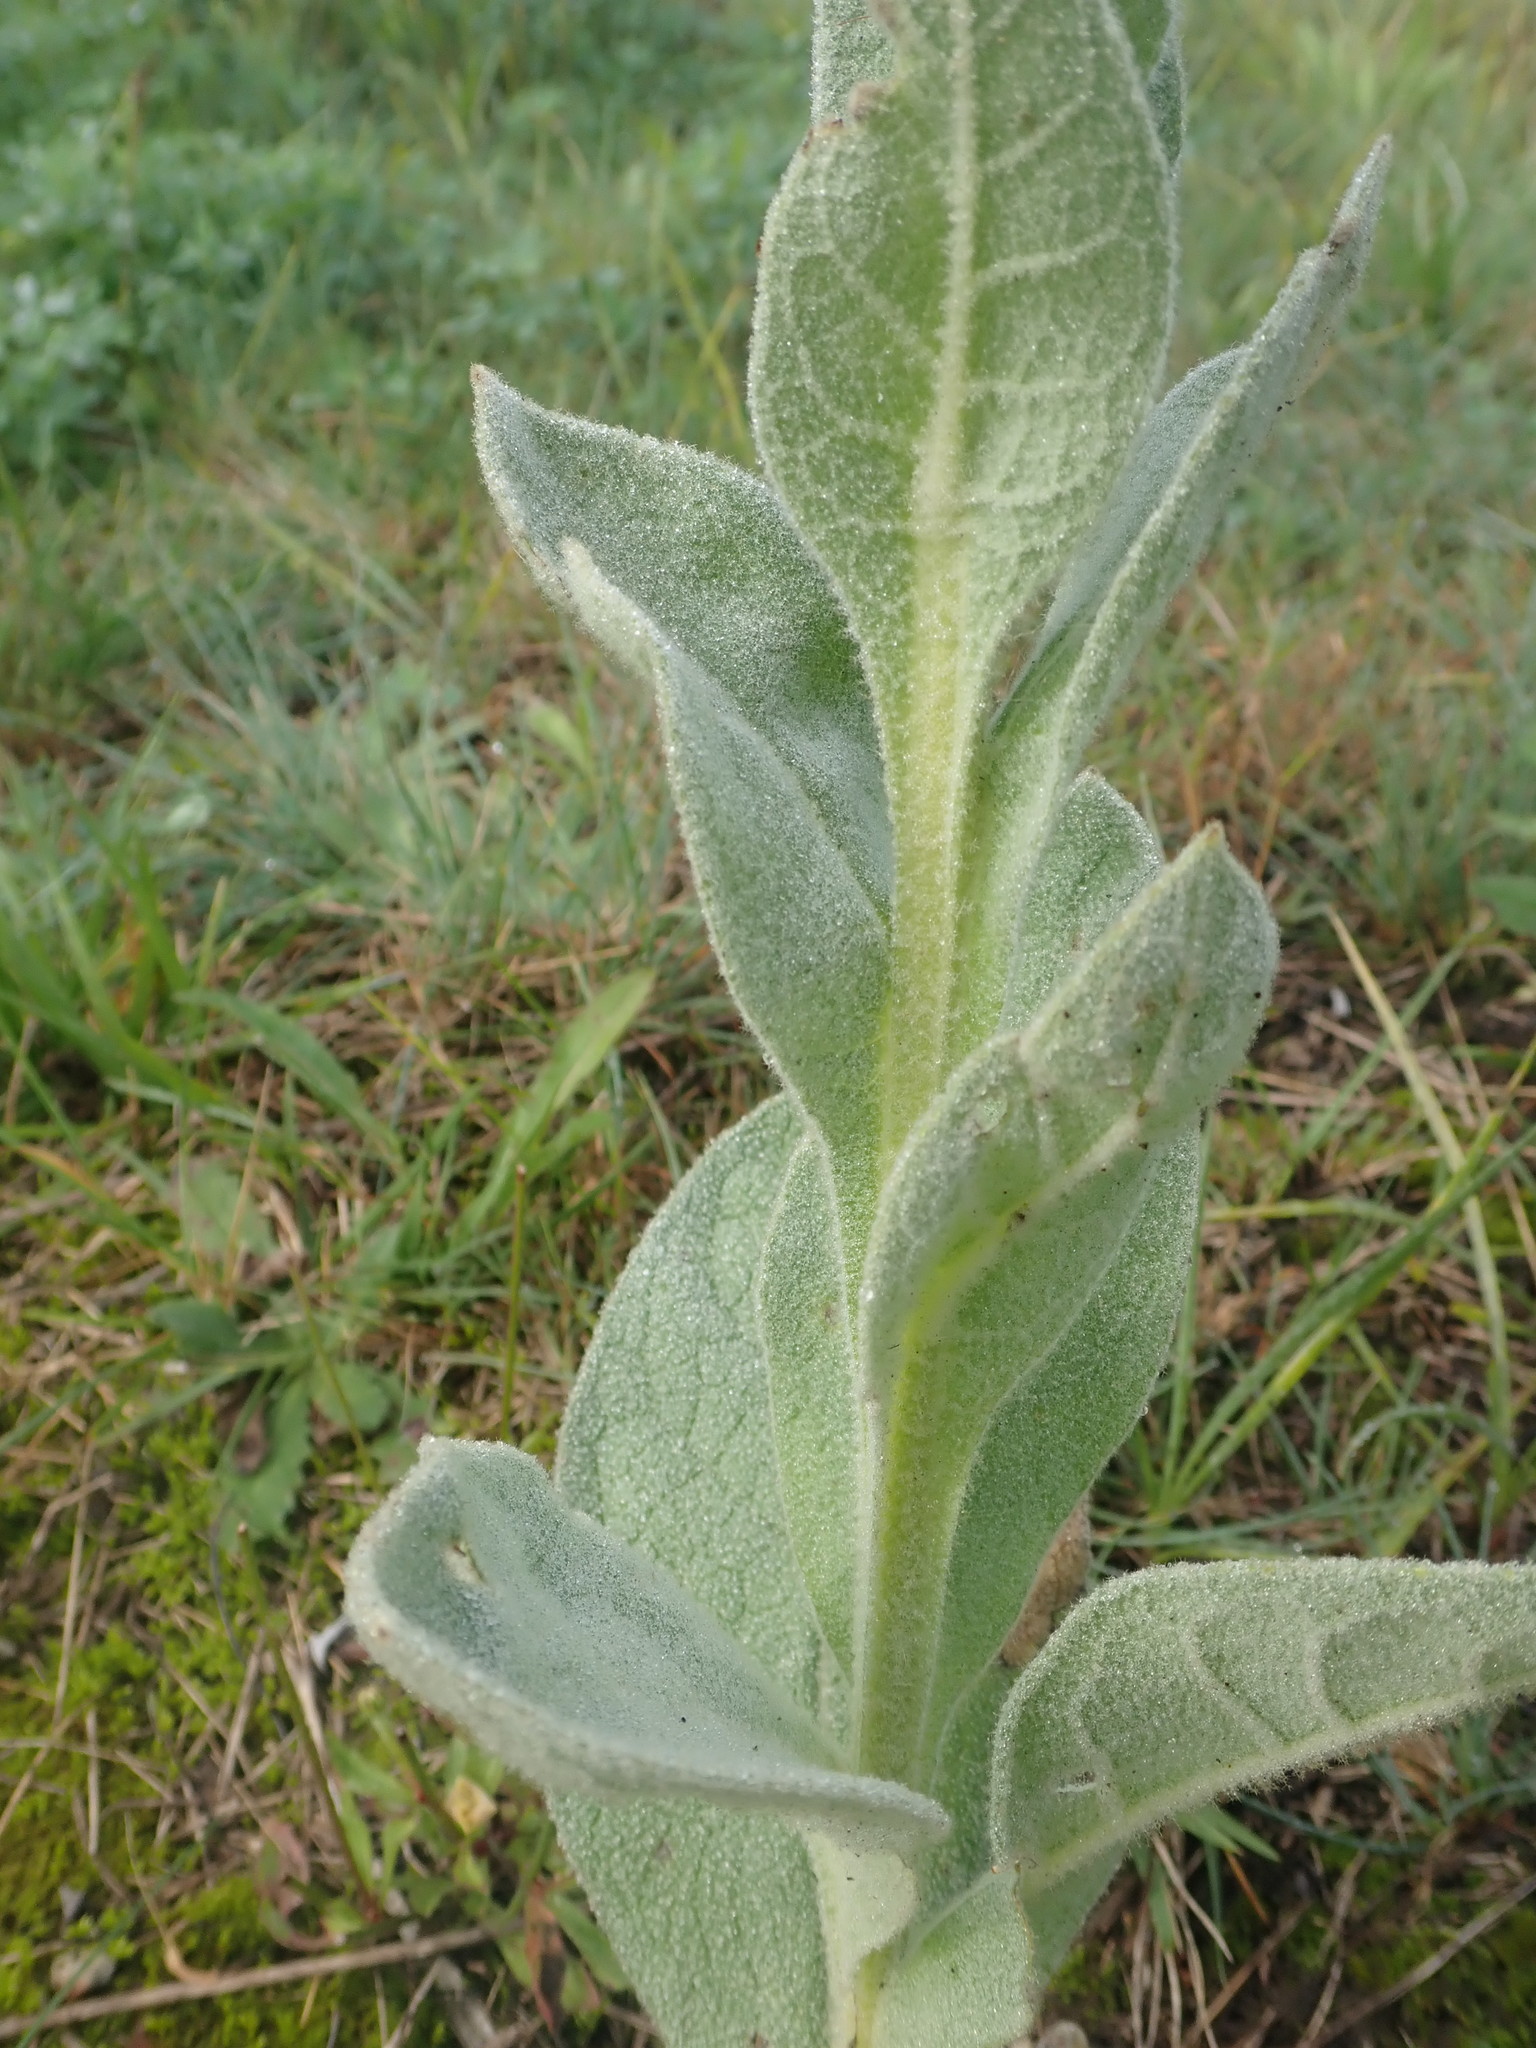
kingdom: Plantae
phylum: Tracheophyta
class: Magnoliopsida
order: Lamiales
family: Scrophulariaceae
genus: Verbascum
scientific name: Verbascum thapsus
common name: Common mullein
